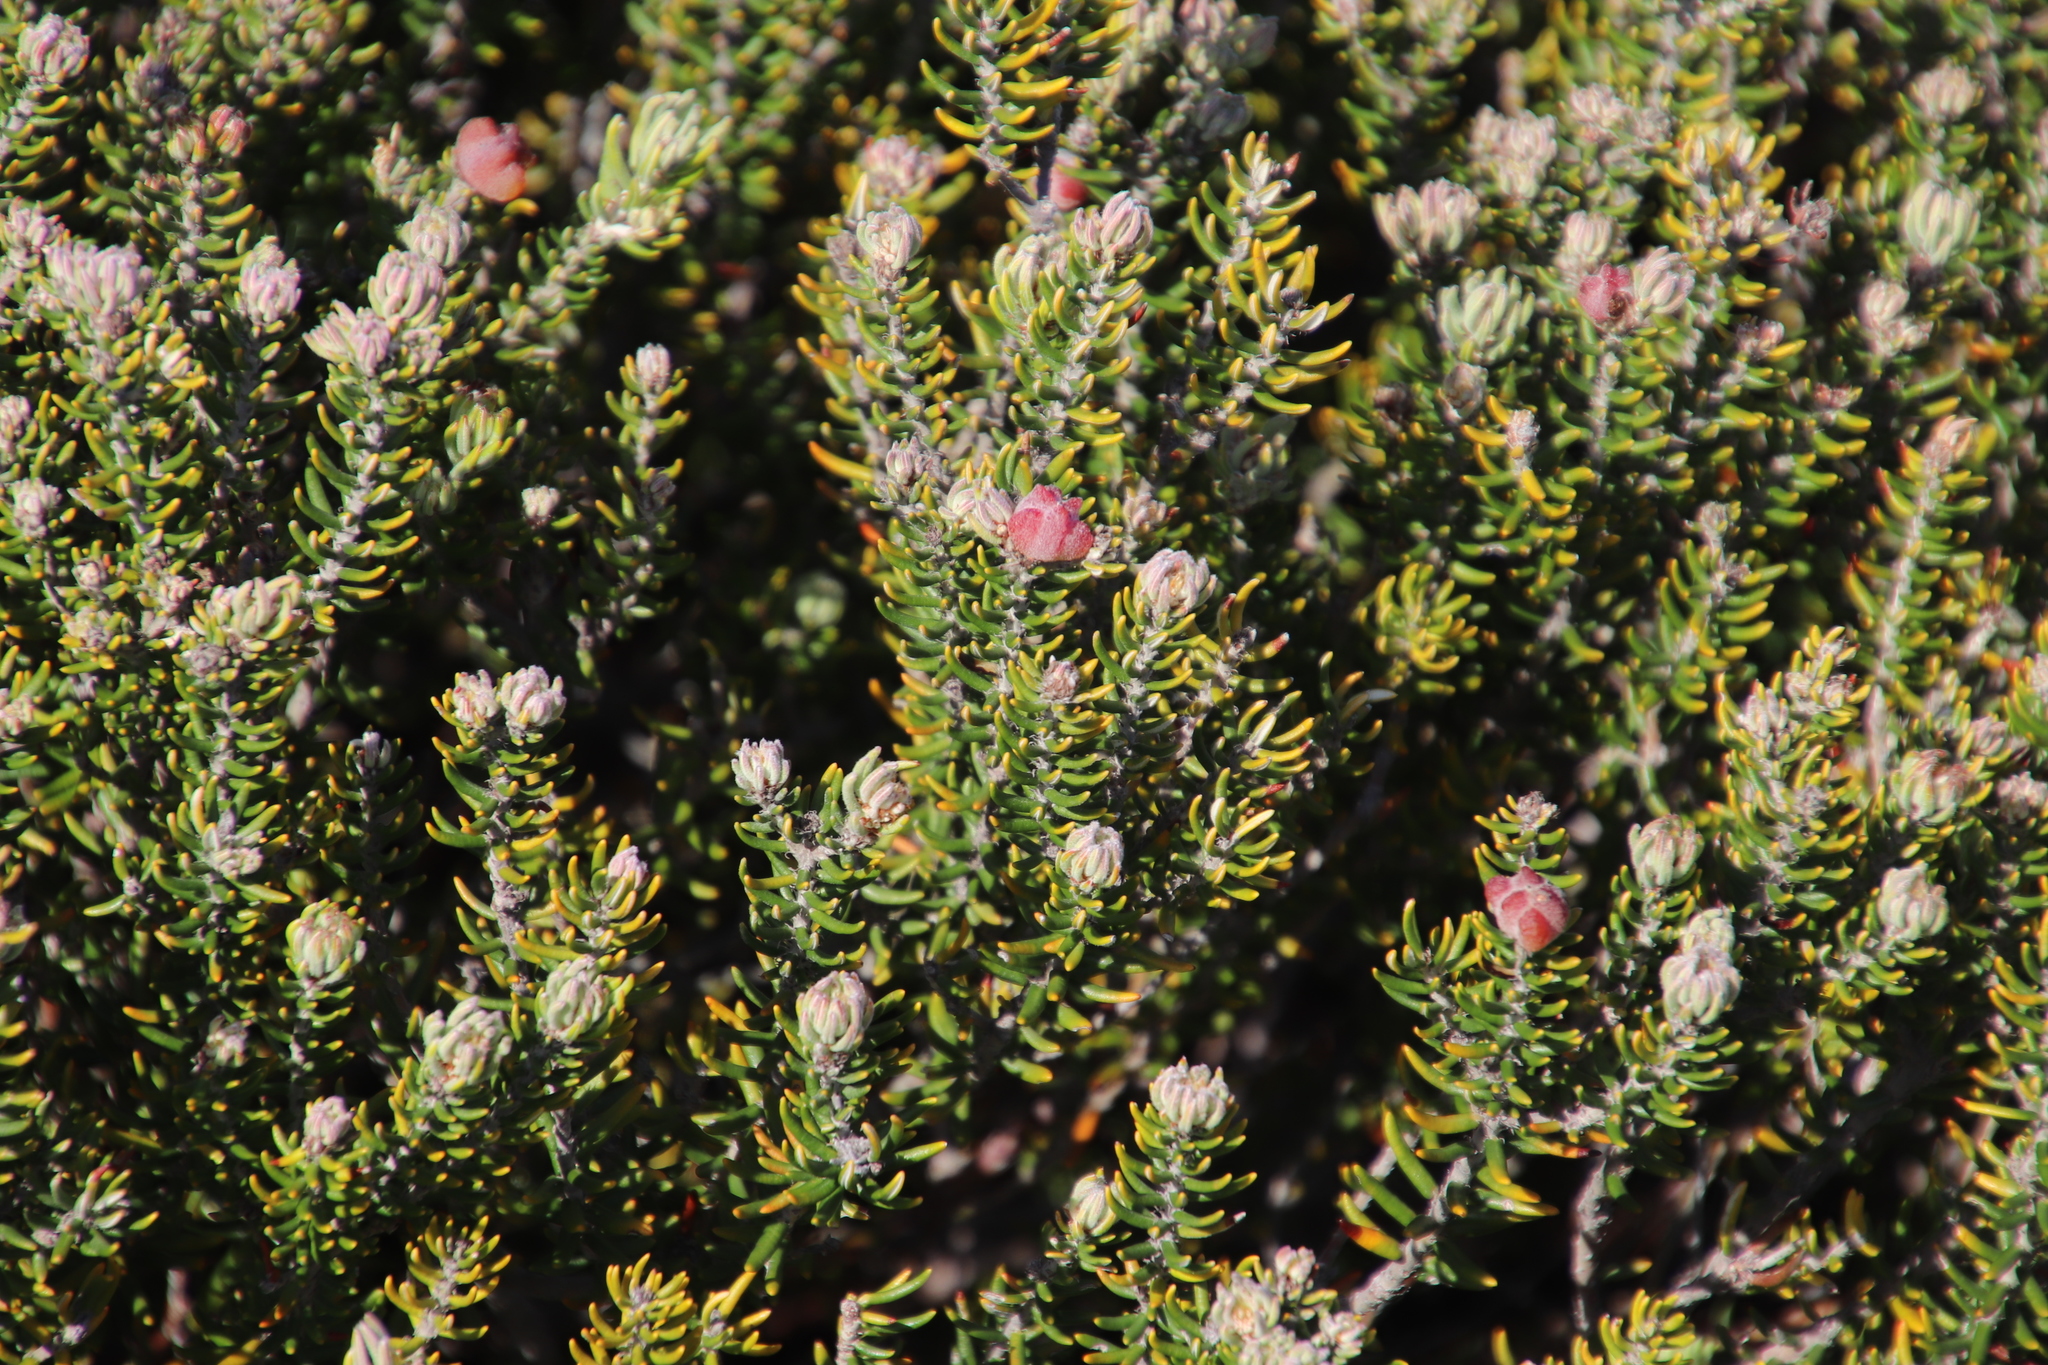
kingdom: Plantae
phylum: Tracheophyta
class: Magnoliopsida
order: Rosales
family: Rhamnaceae
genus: Trichocephalus
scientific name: Trichocephalus stipularis
